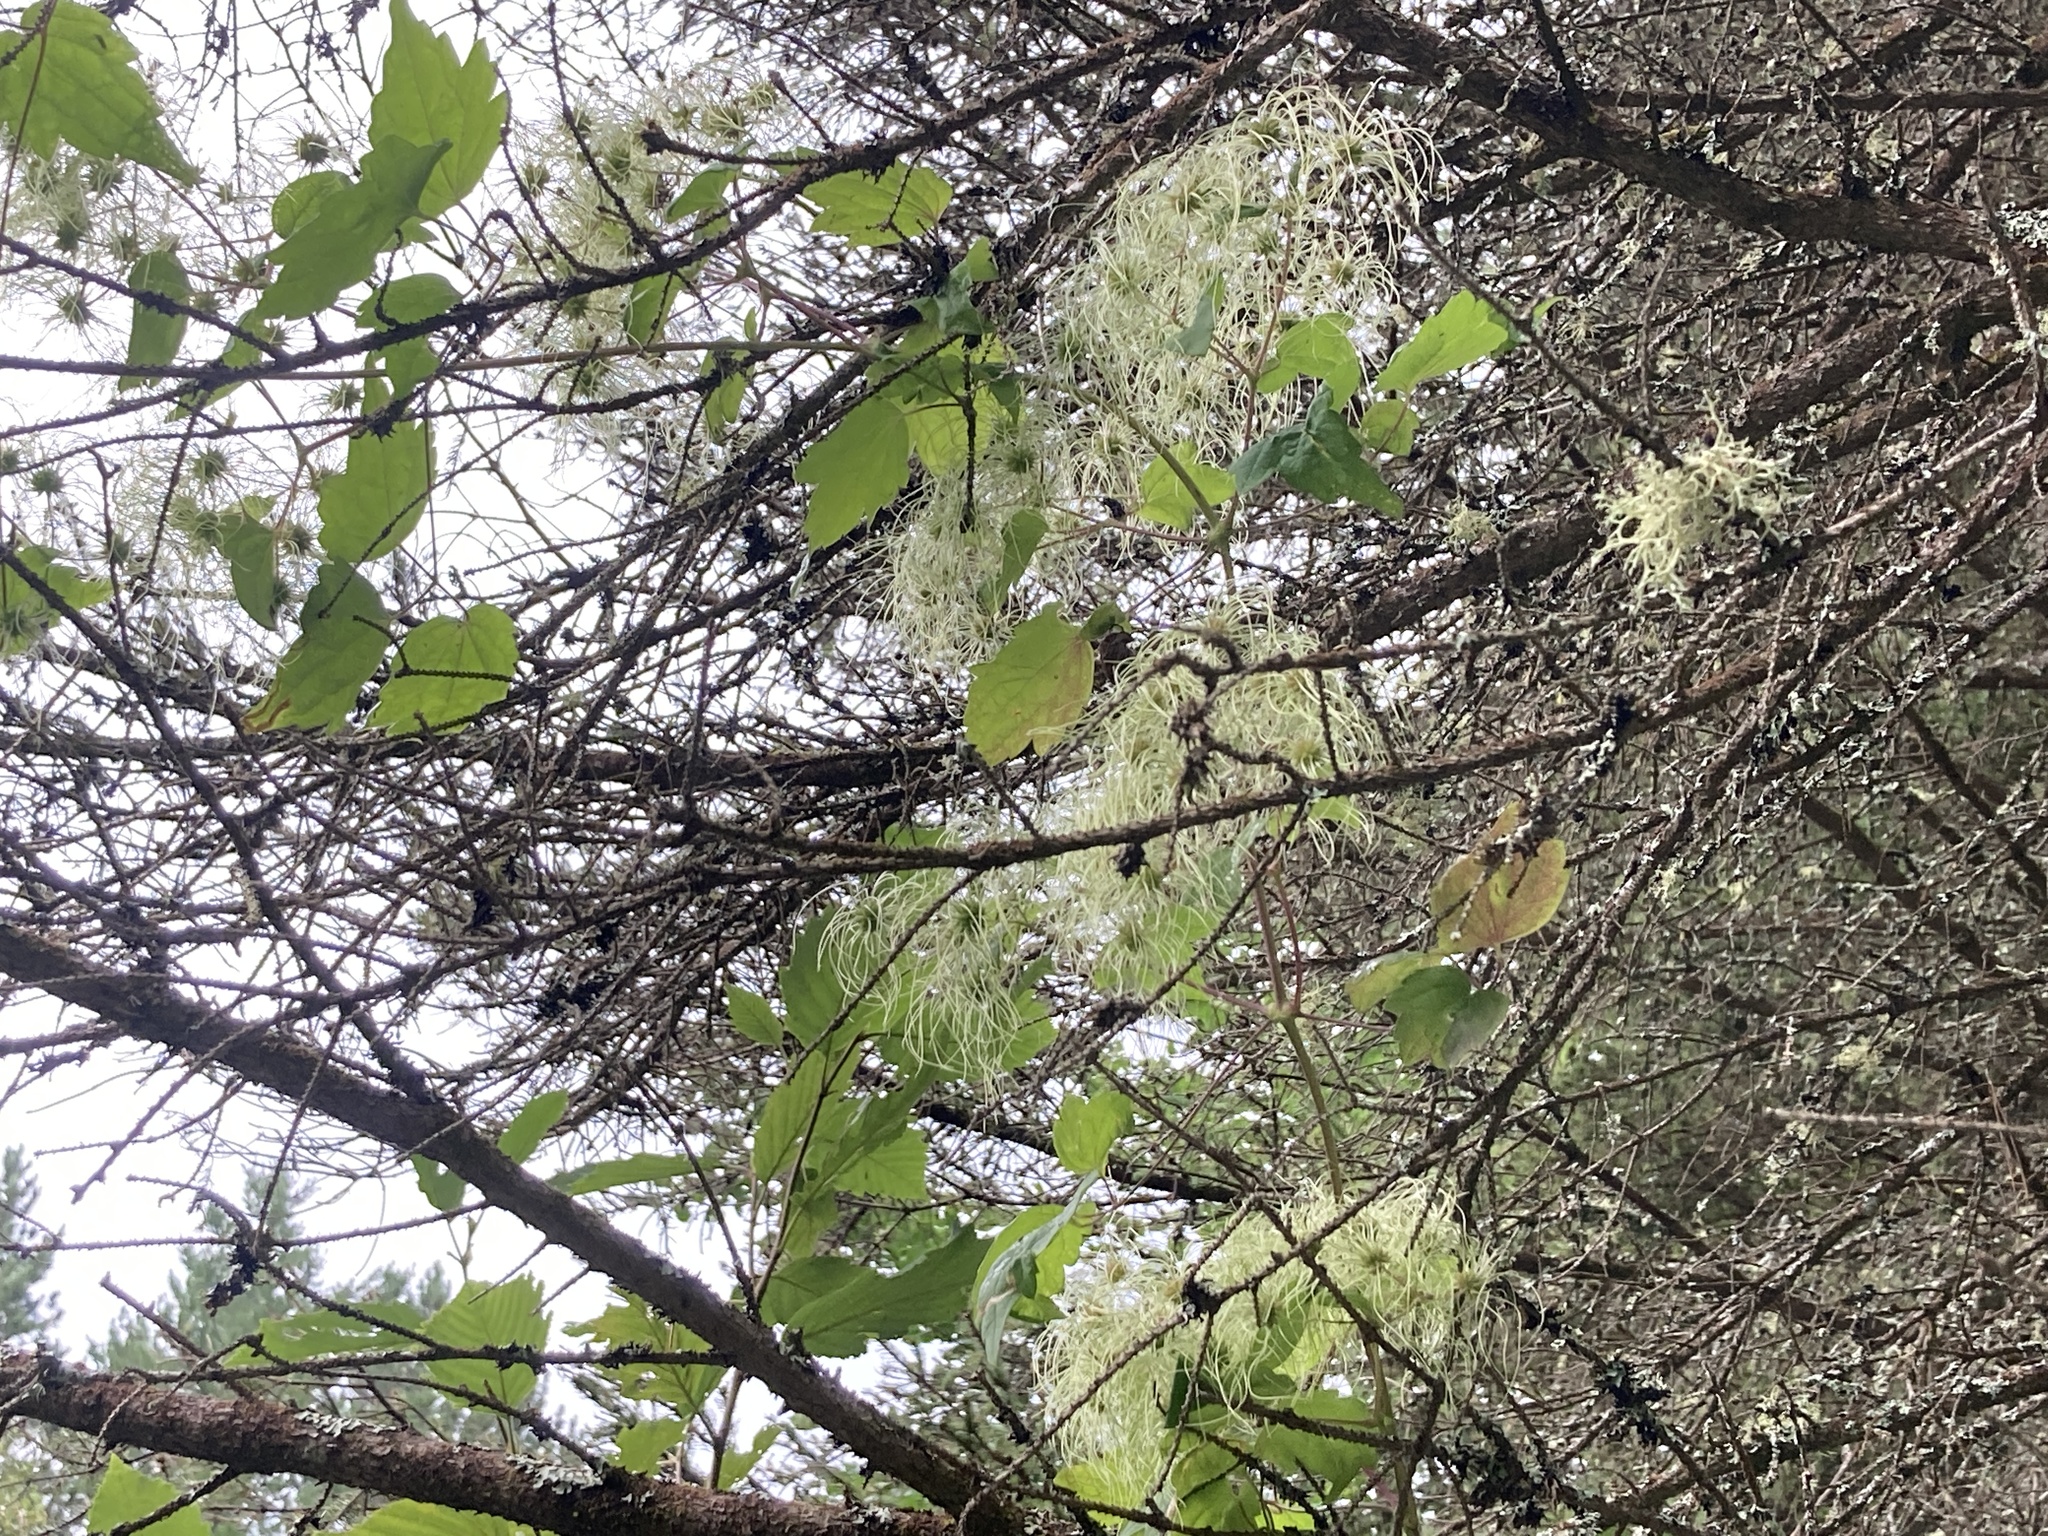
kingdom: Plantae
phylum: Tracheophyta
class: Magnoliopsida
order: Ranunculales
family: Ranunculaceae
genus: Clematis
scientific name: Clematis virginiana
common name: Virgin's-bower
